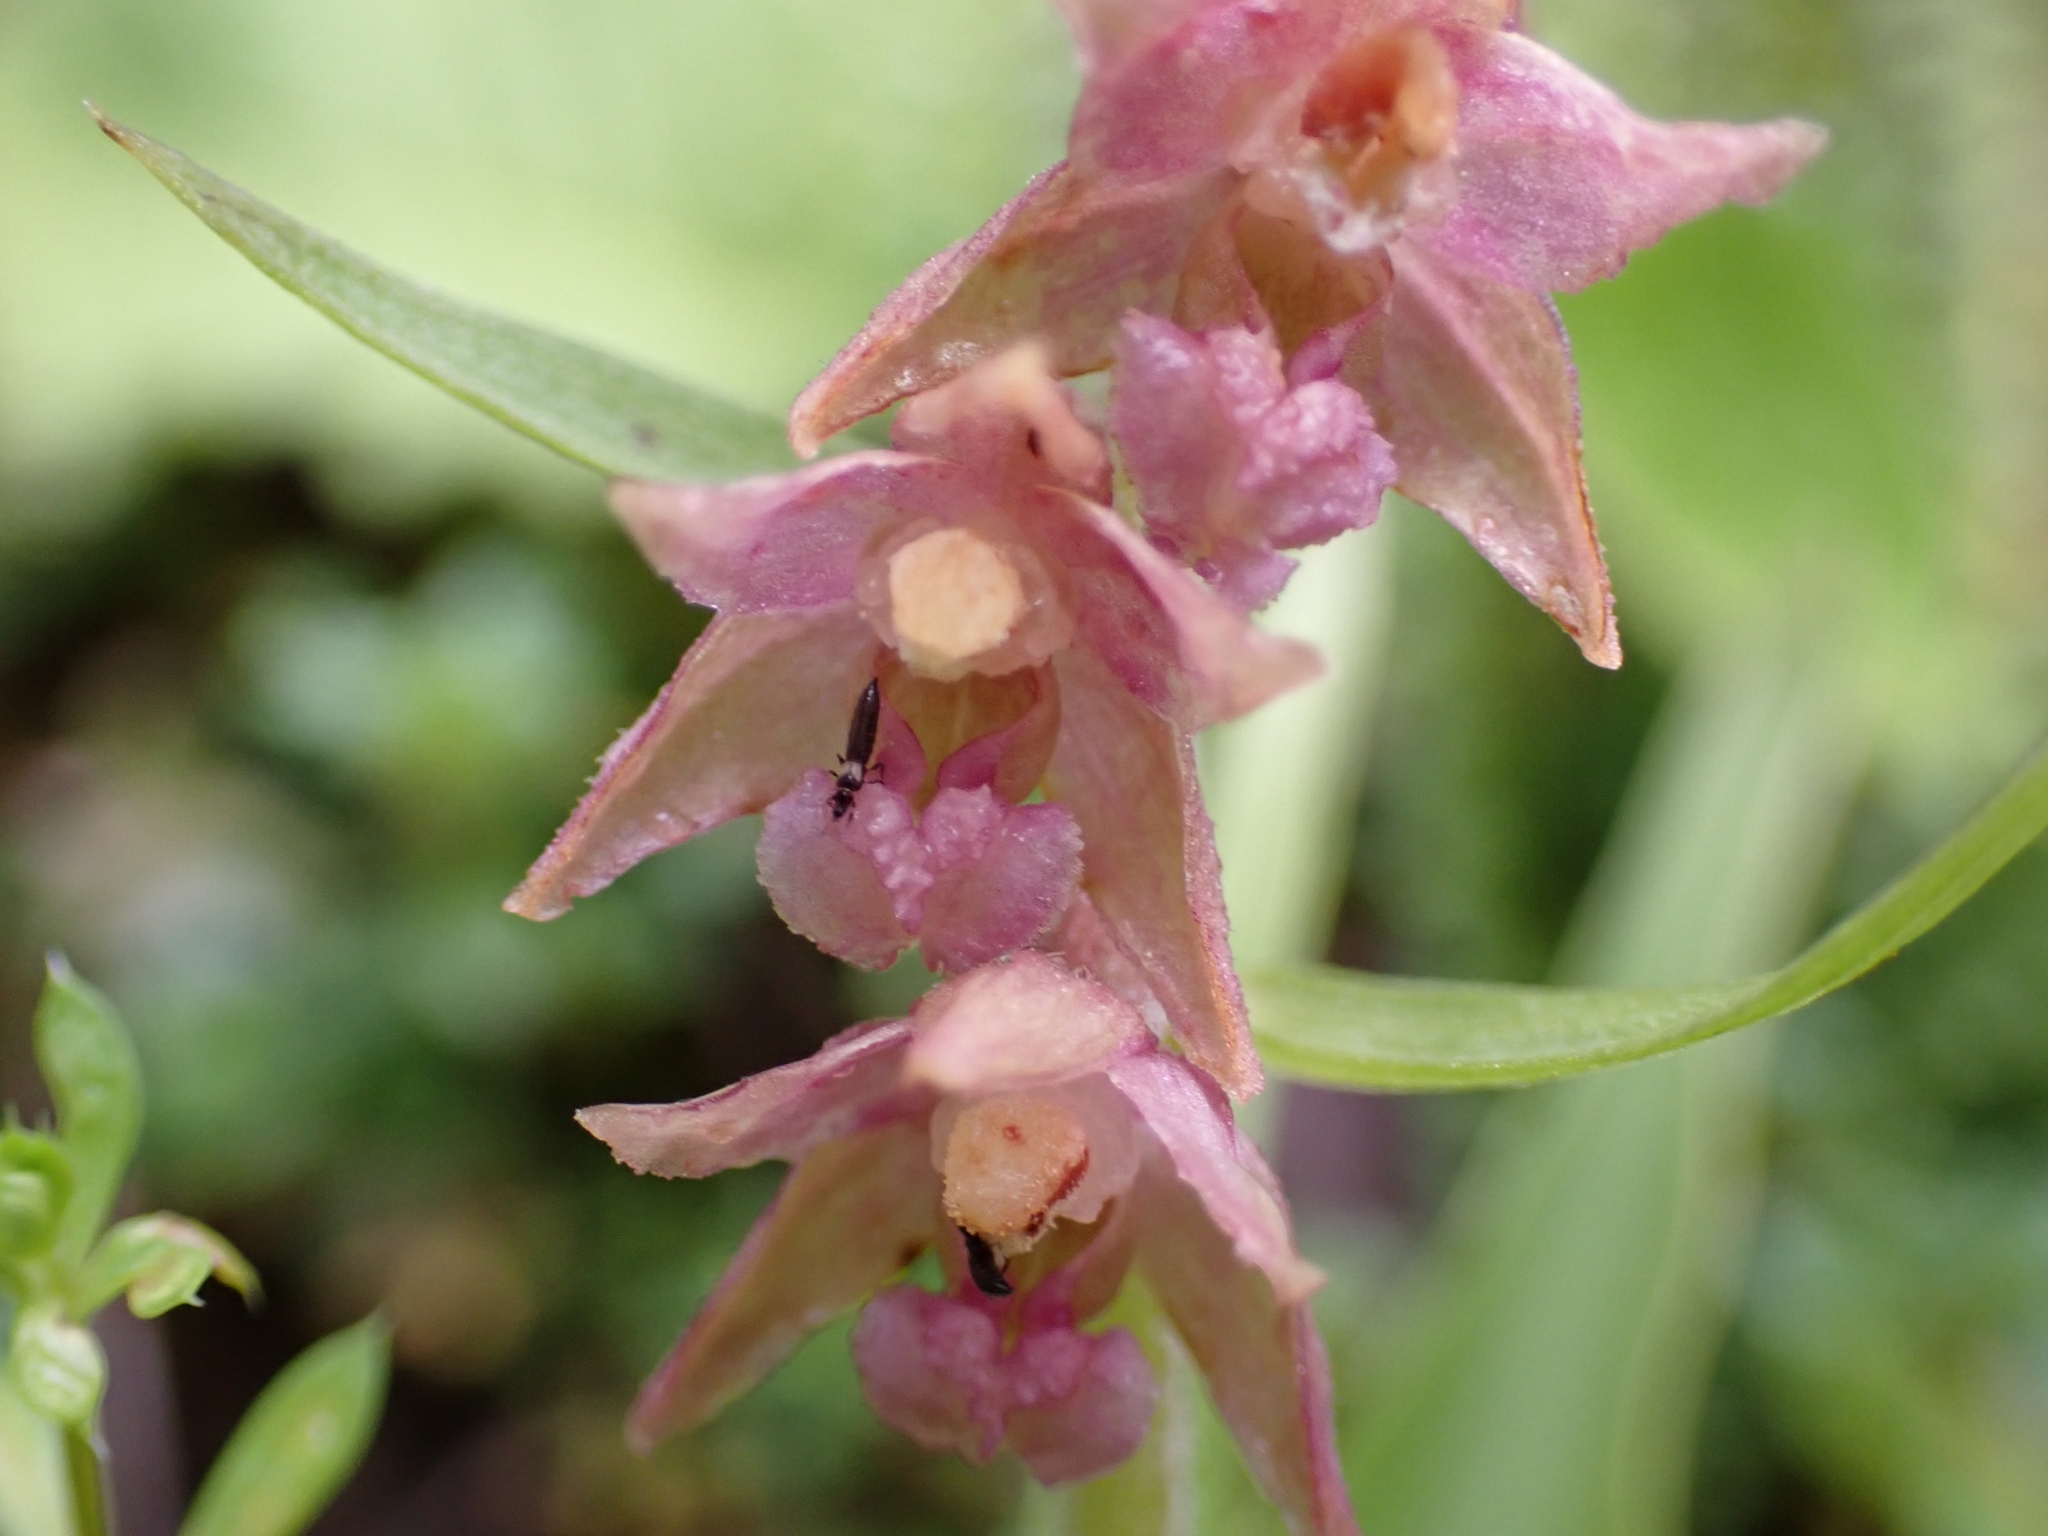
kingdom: Plantae
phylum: Tracheophyta
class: Liliopsida
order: Asparagales
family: Orchidaceae
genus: Epipactis
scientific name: Epipactis atrorubens
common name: Dark-red helleborine
